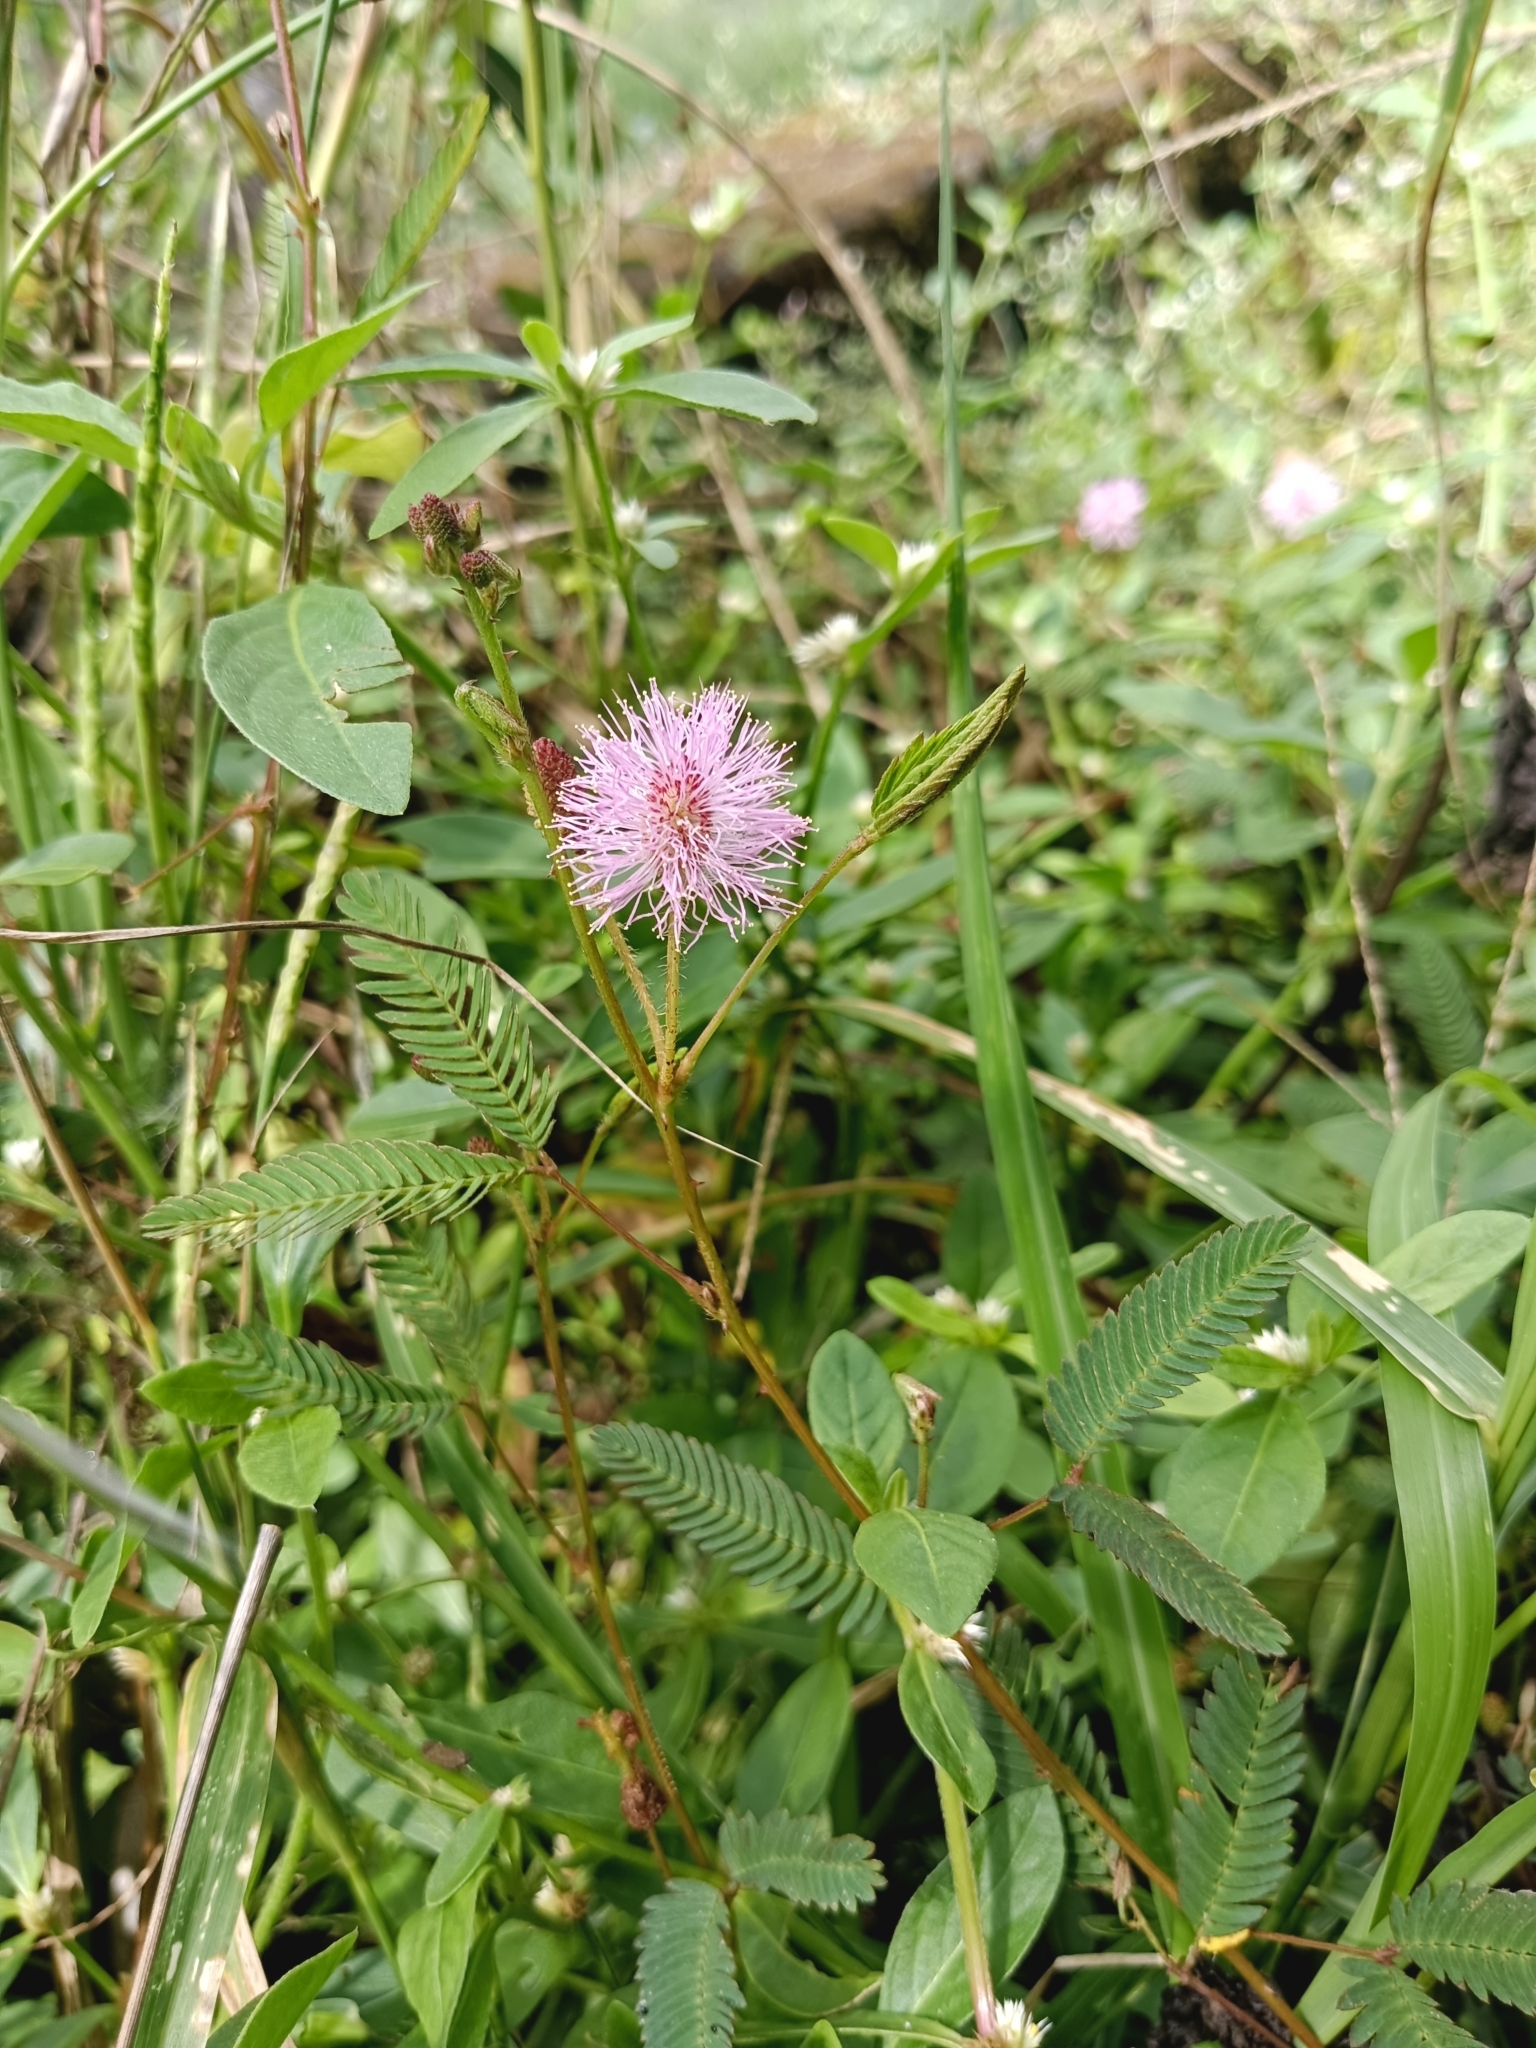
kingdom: Plantae
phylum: Tracheophyta
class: Magnoliopsida
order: Fabales
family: Fabaceae
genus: Mimosa
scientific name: Mimosa pudica
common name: Sensitive plant
